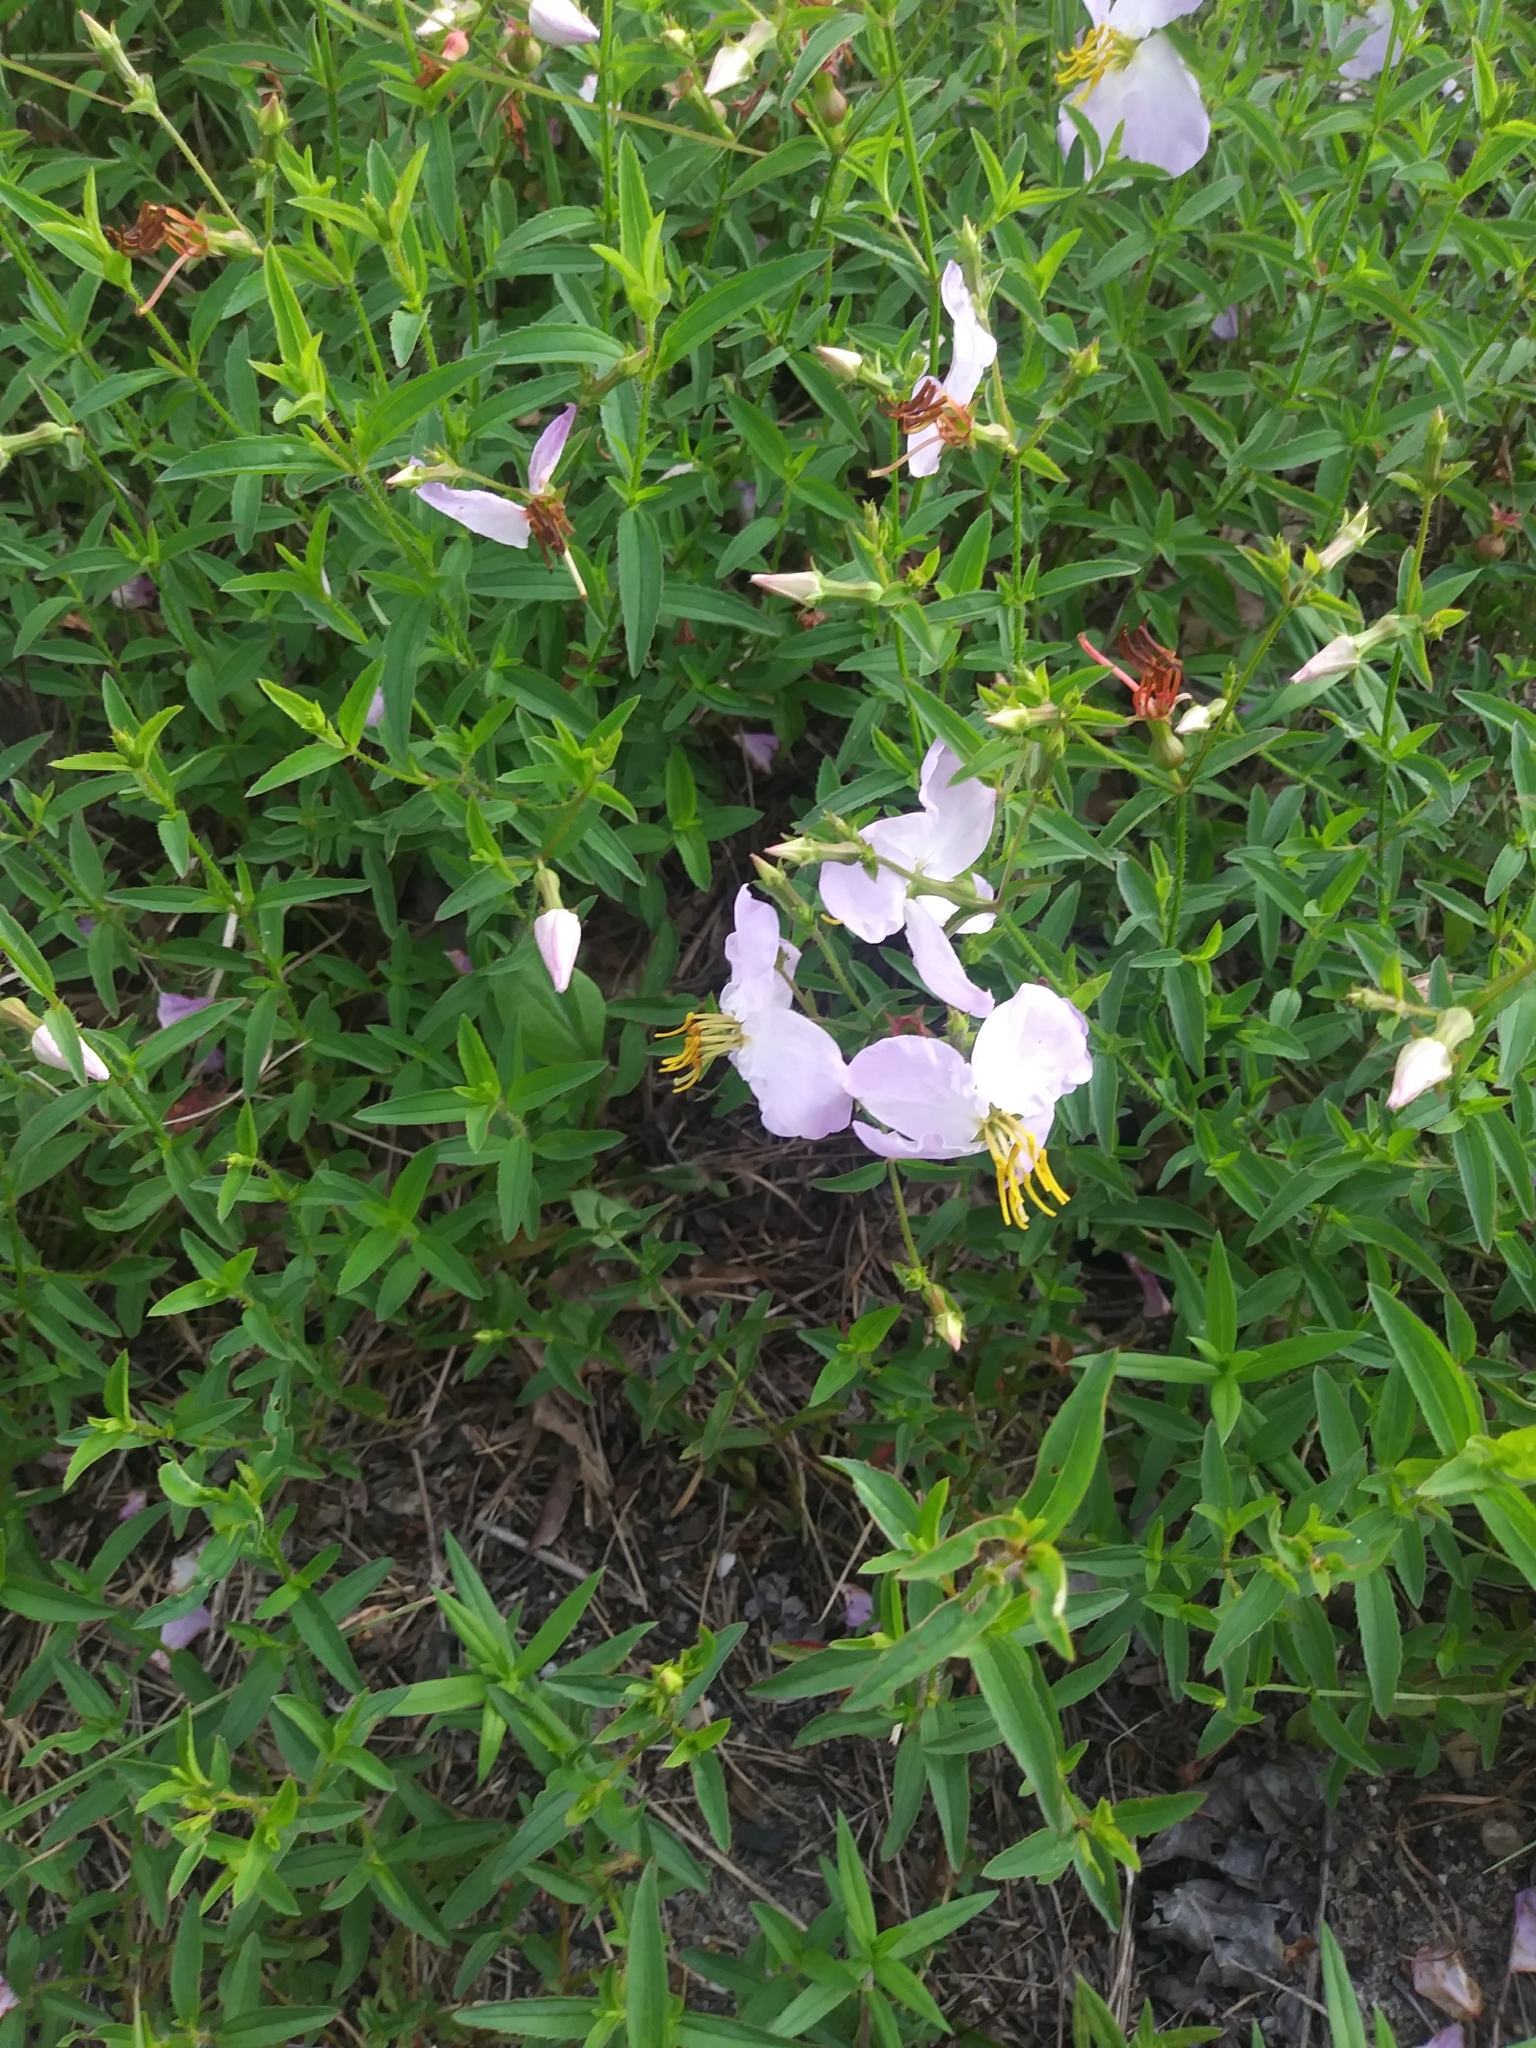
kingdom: Plantae
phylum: Tracheophyta
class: Magnoliopsida
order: Myrtales
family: Melastomataceae
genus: Rhexia
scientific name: Rhexia mariana
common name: Dull meadow-pitcher
